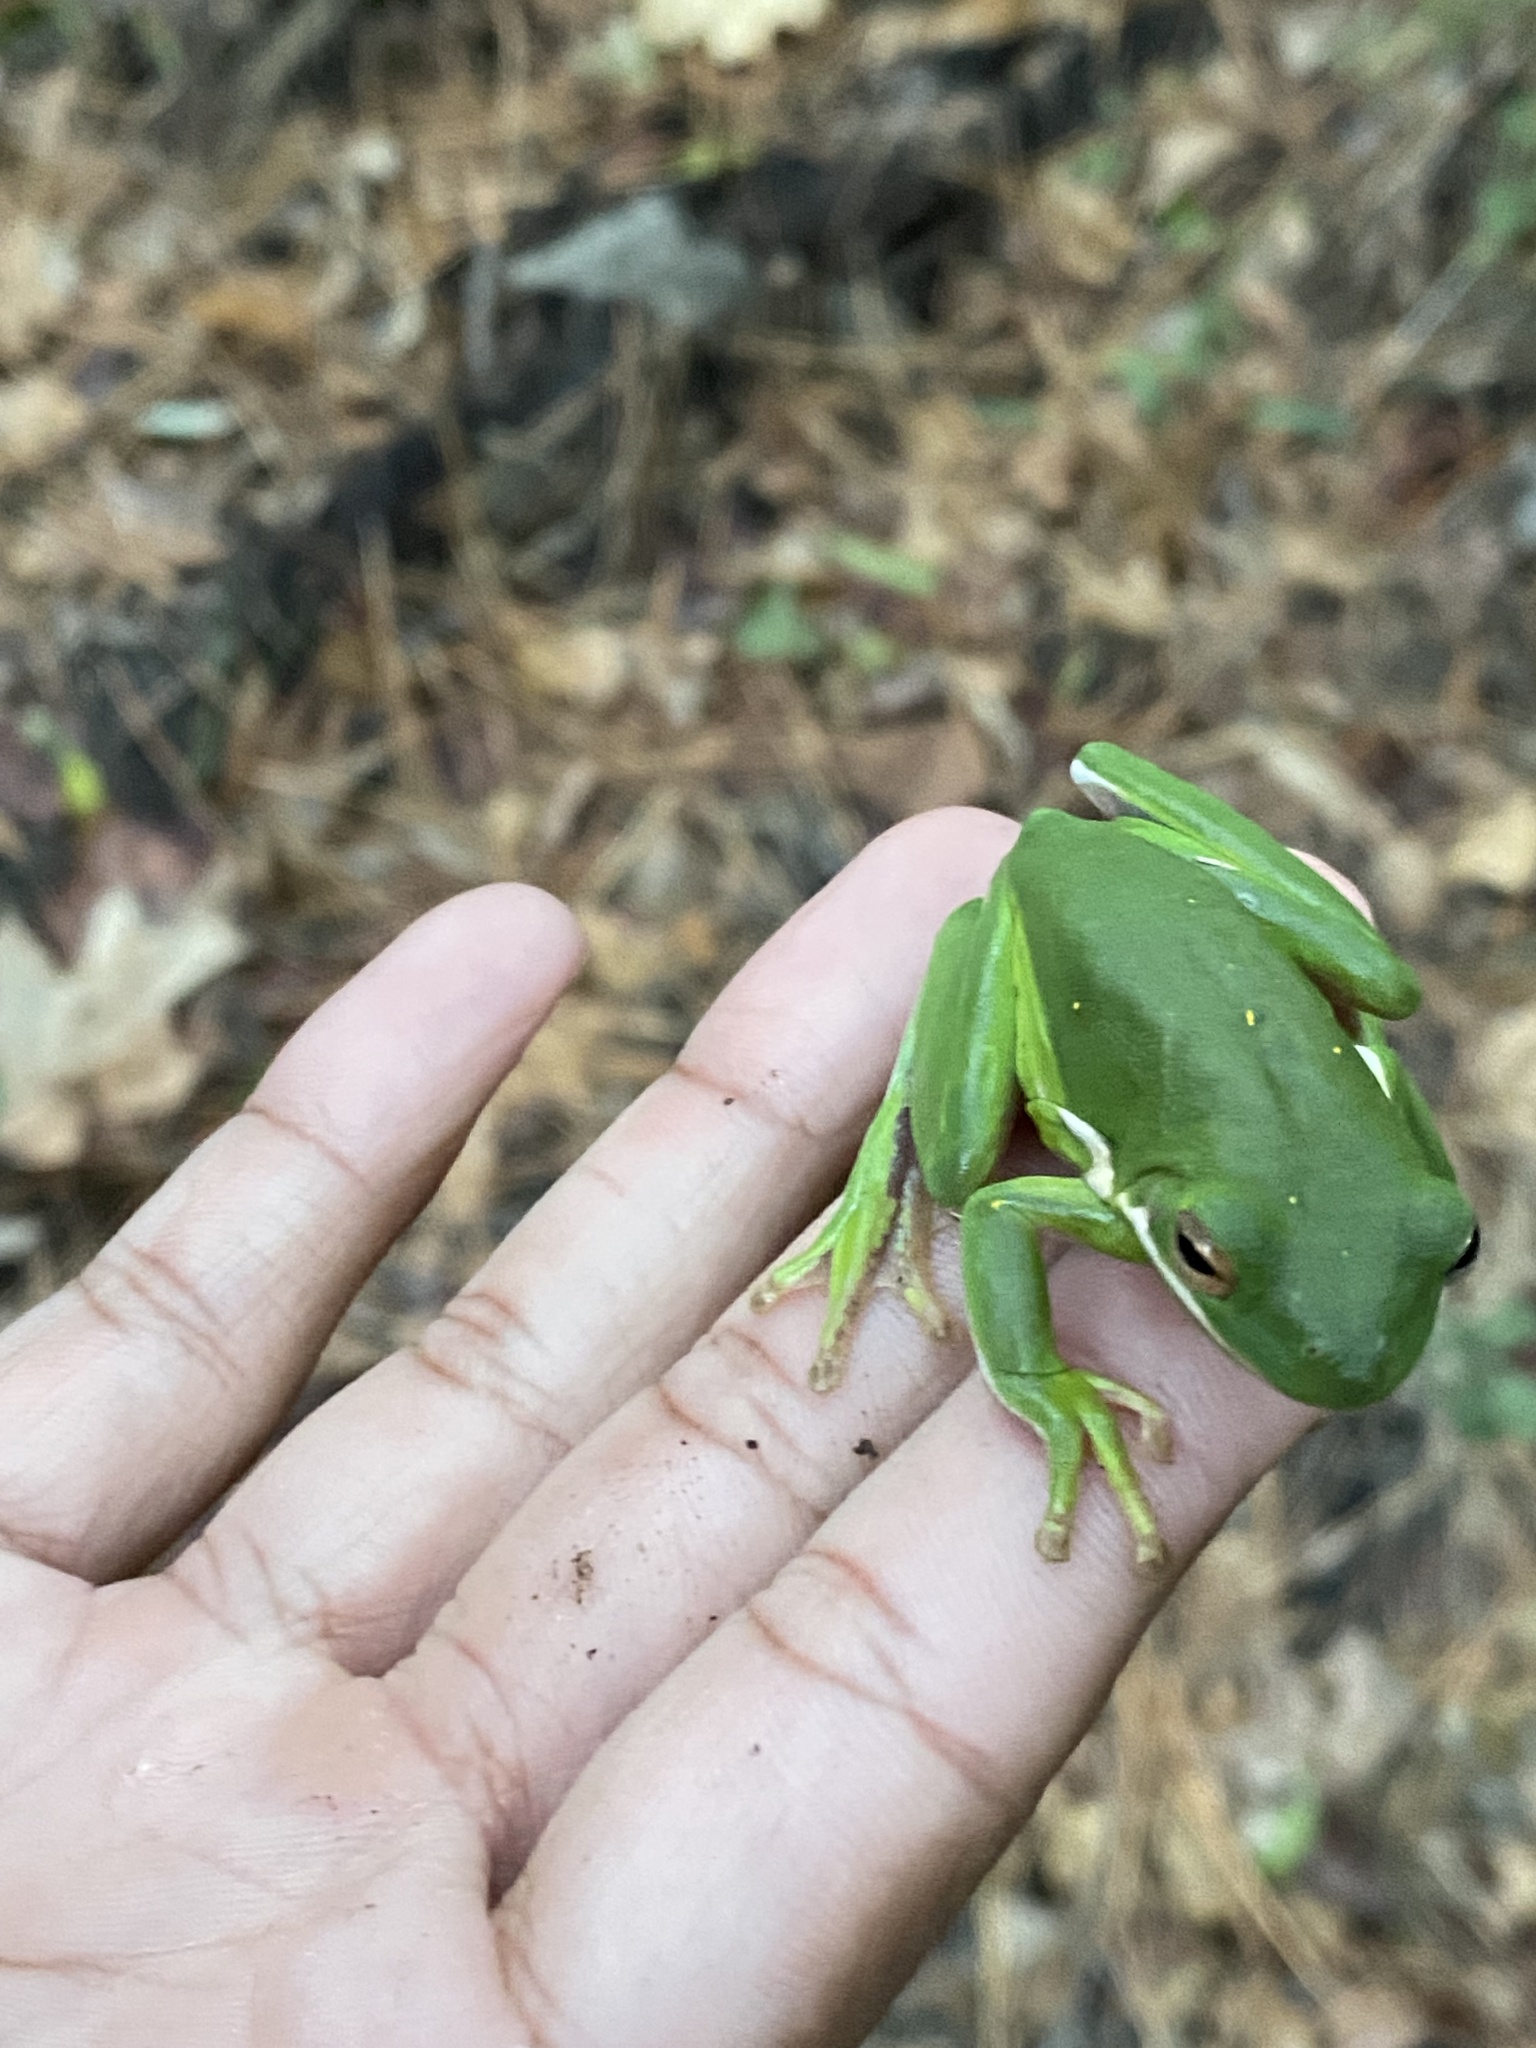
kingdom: Animalia
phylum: Chordata
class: Amphibia
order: Anura
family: Hylidae
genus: Dryophytes
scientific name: Dryophytes cinereus
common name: Green treefrog
